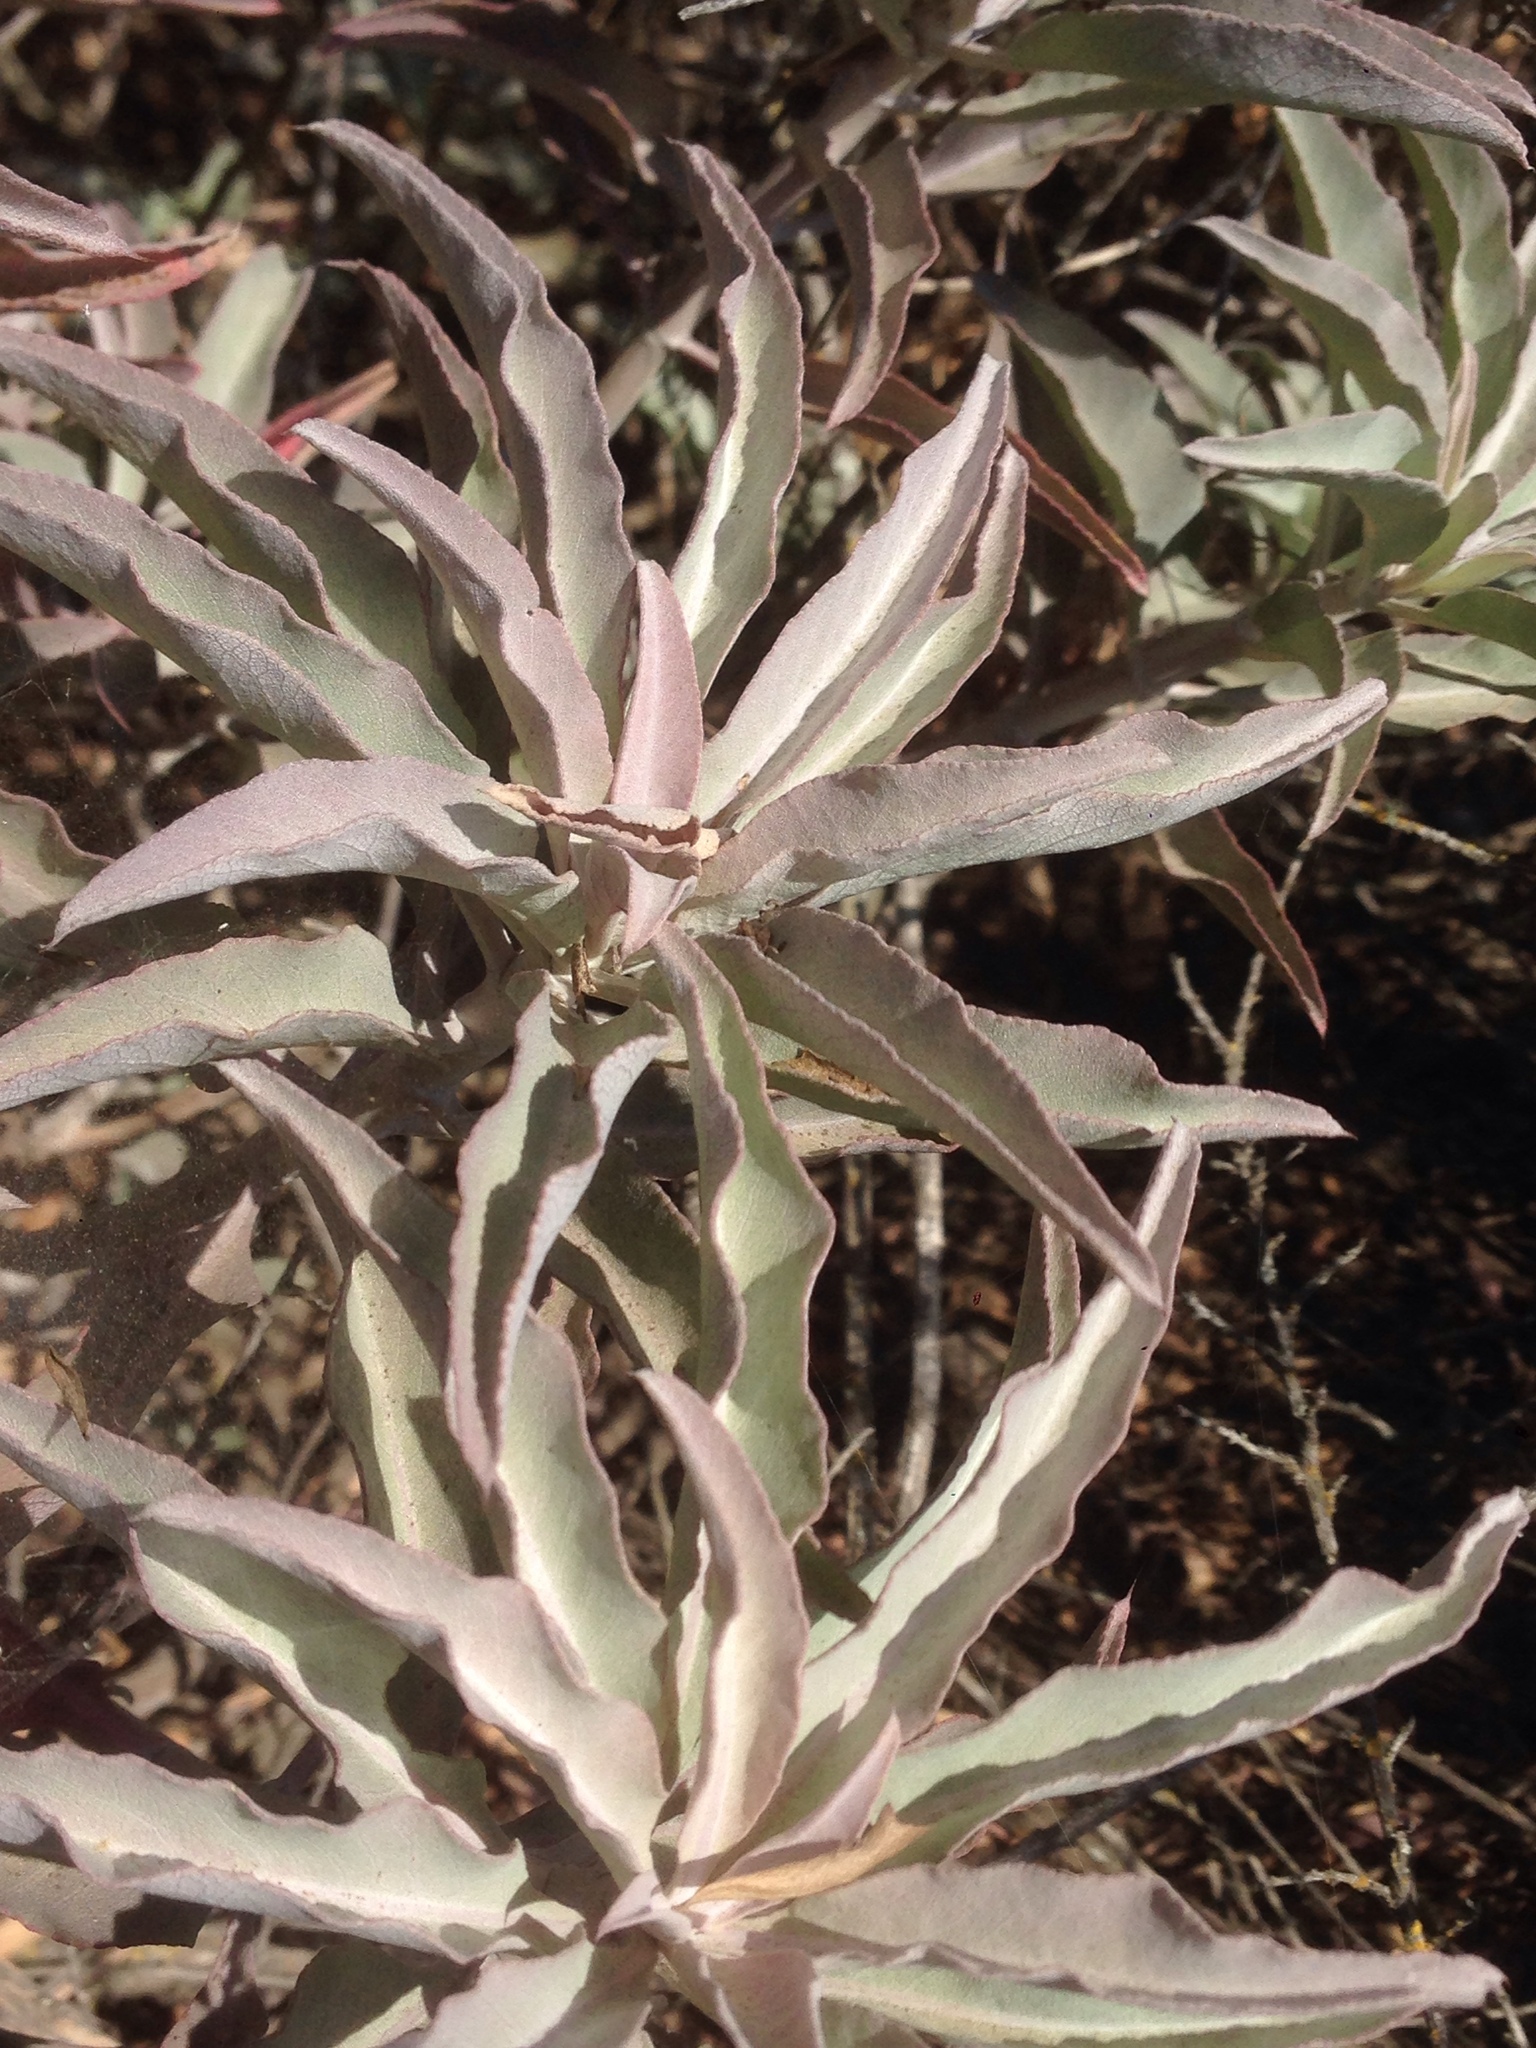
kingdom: Plantae
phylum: Tracheophyta
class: Magnoliopsida
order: Lamiales
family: Lamiaceae
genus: Salvia
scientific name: Salvia apiana
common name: White sage
